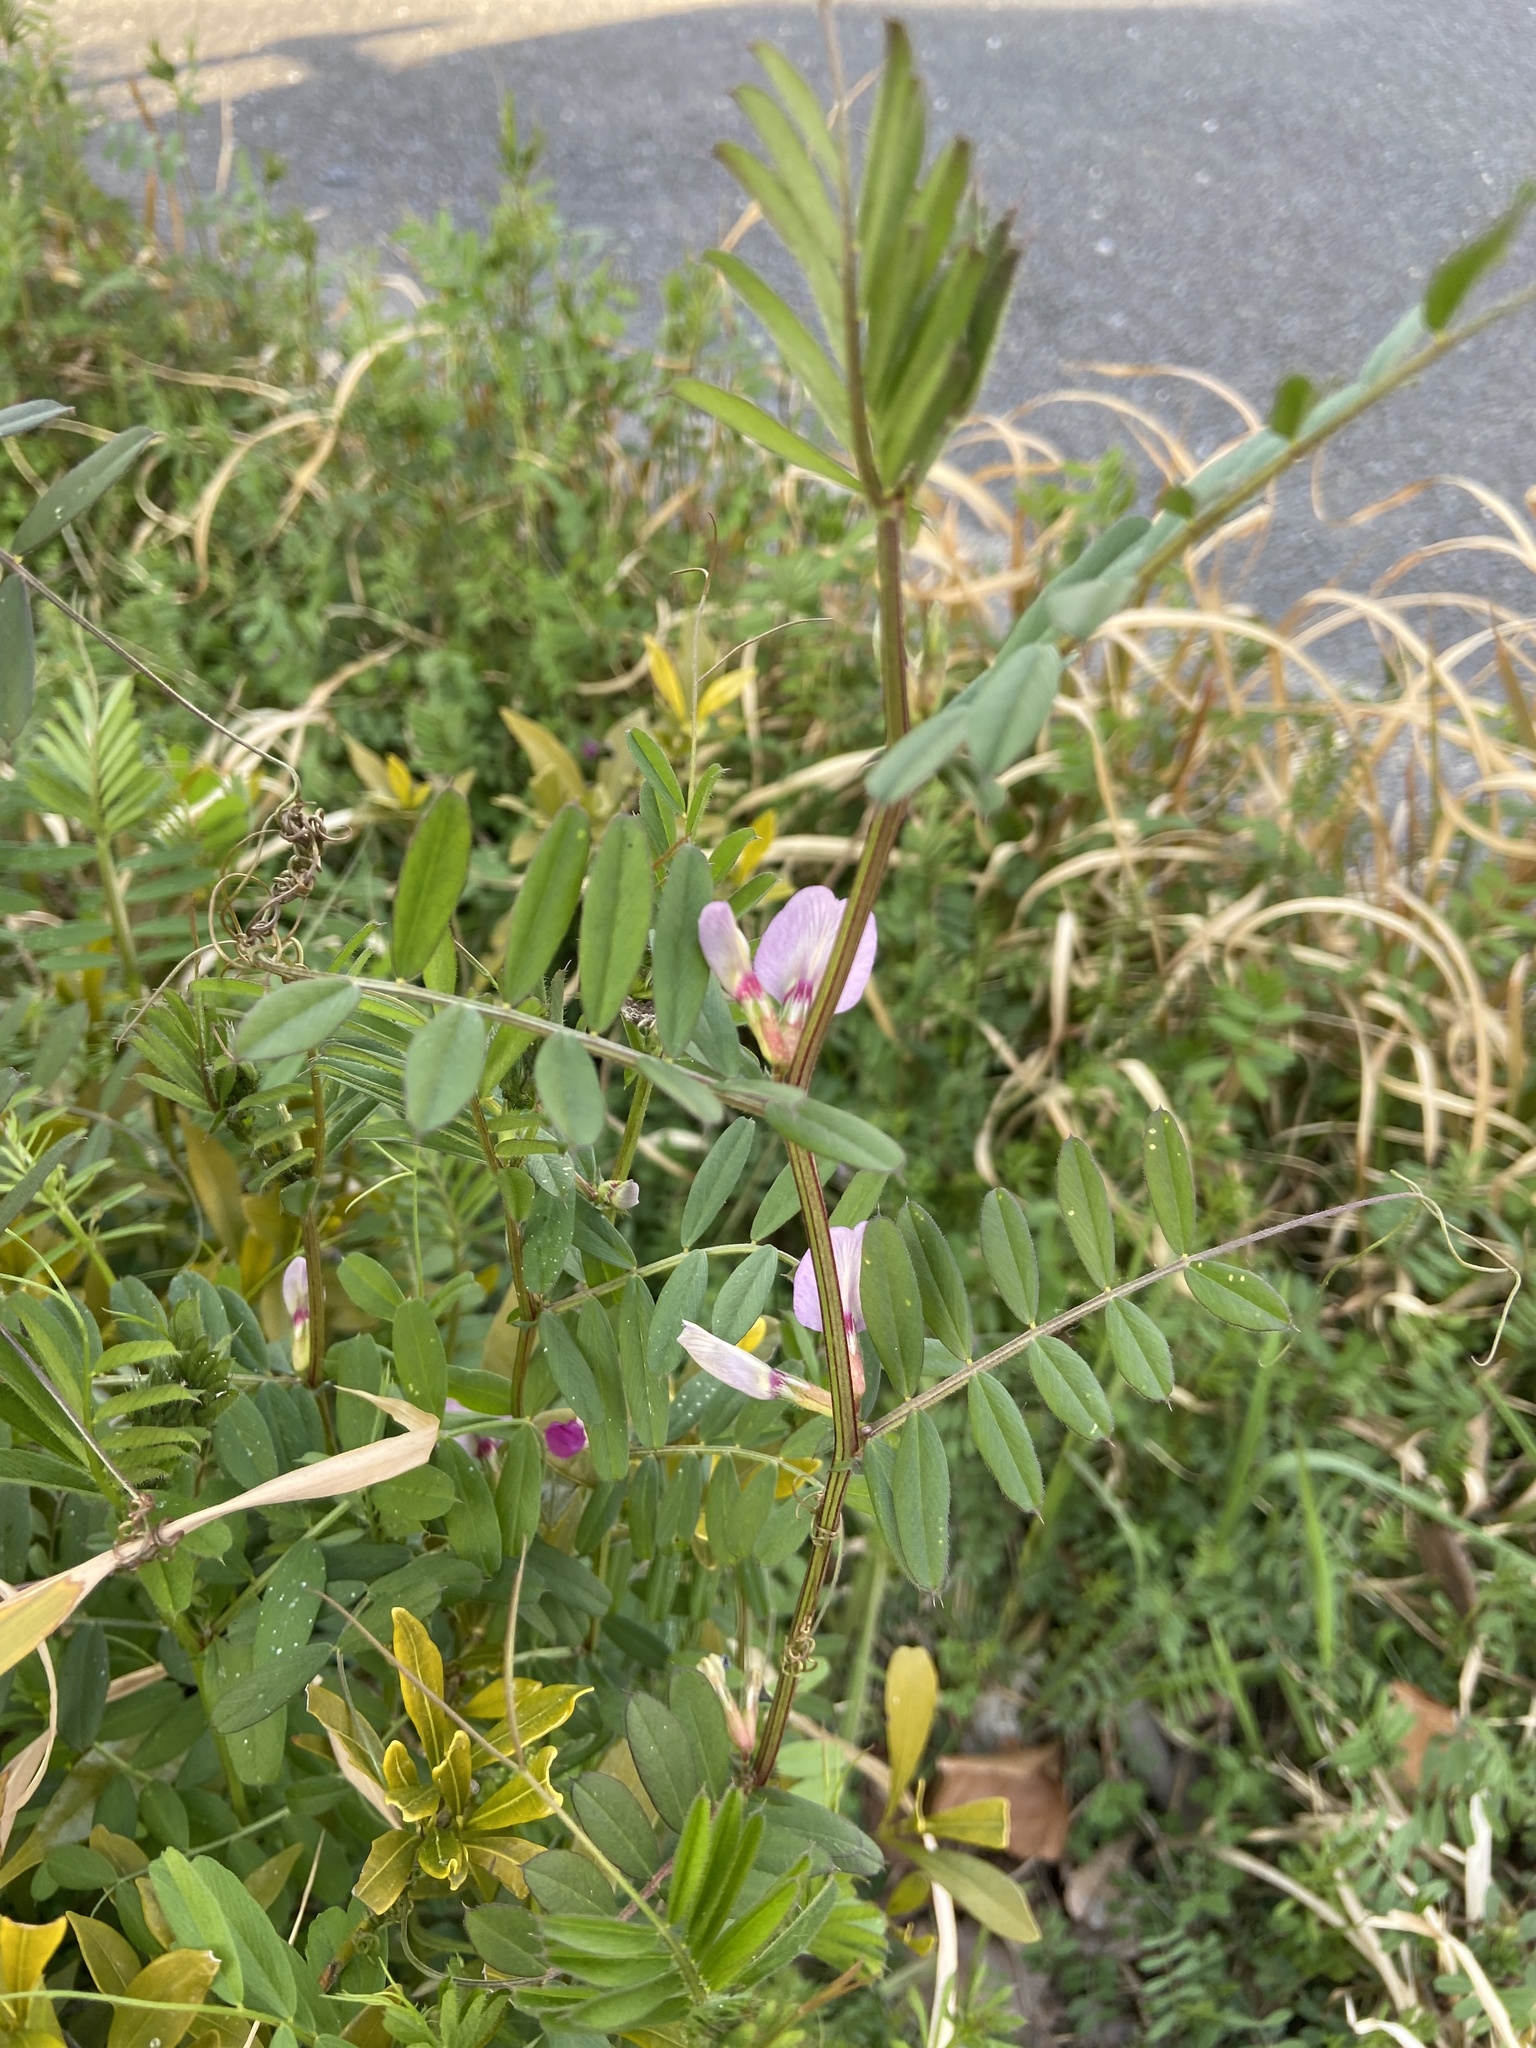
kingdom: Plantae
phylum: Tracheophyta
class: Magnoliopsida
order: Fabales
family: Fabaceae
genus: Vicia
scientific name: Vicia sativa
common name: Garden vetch
